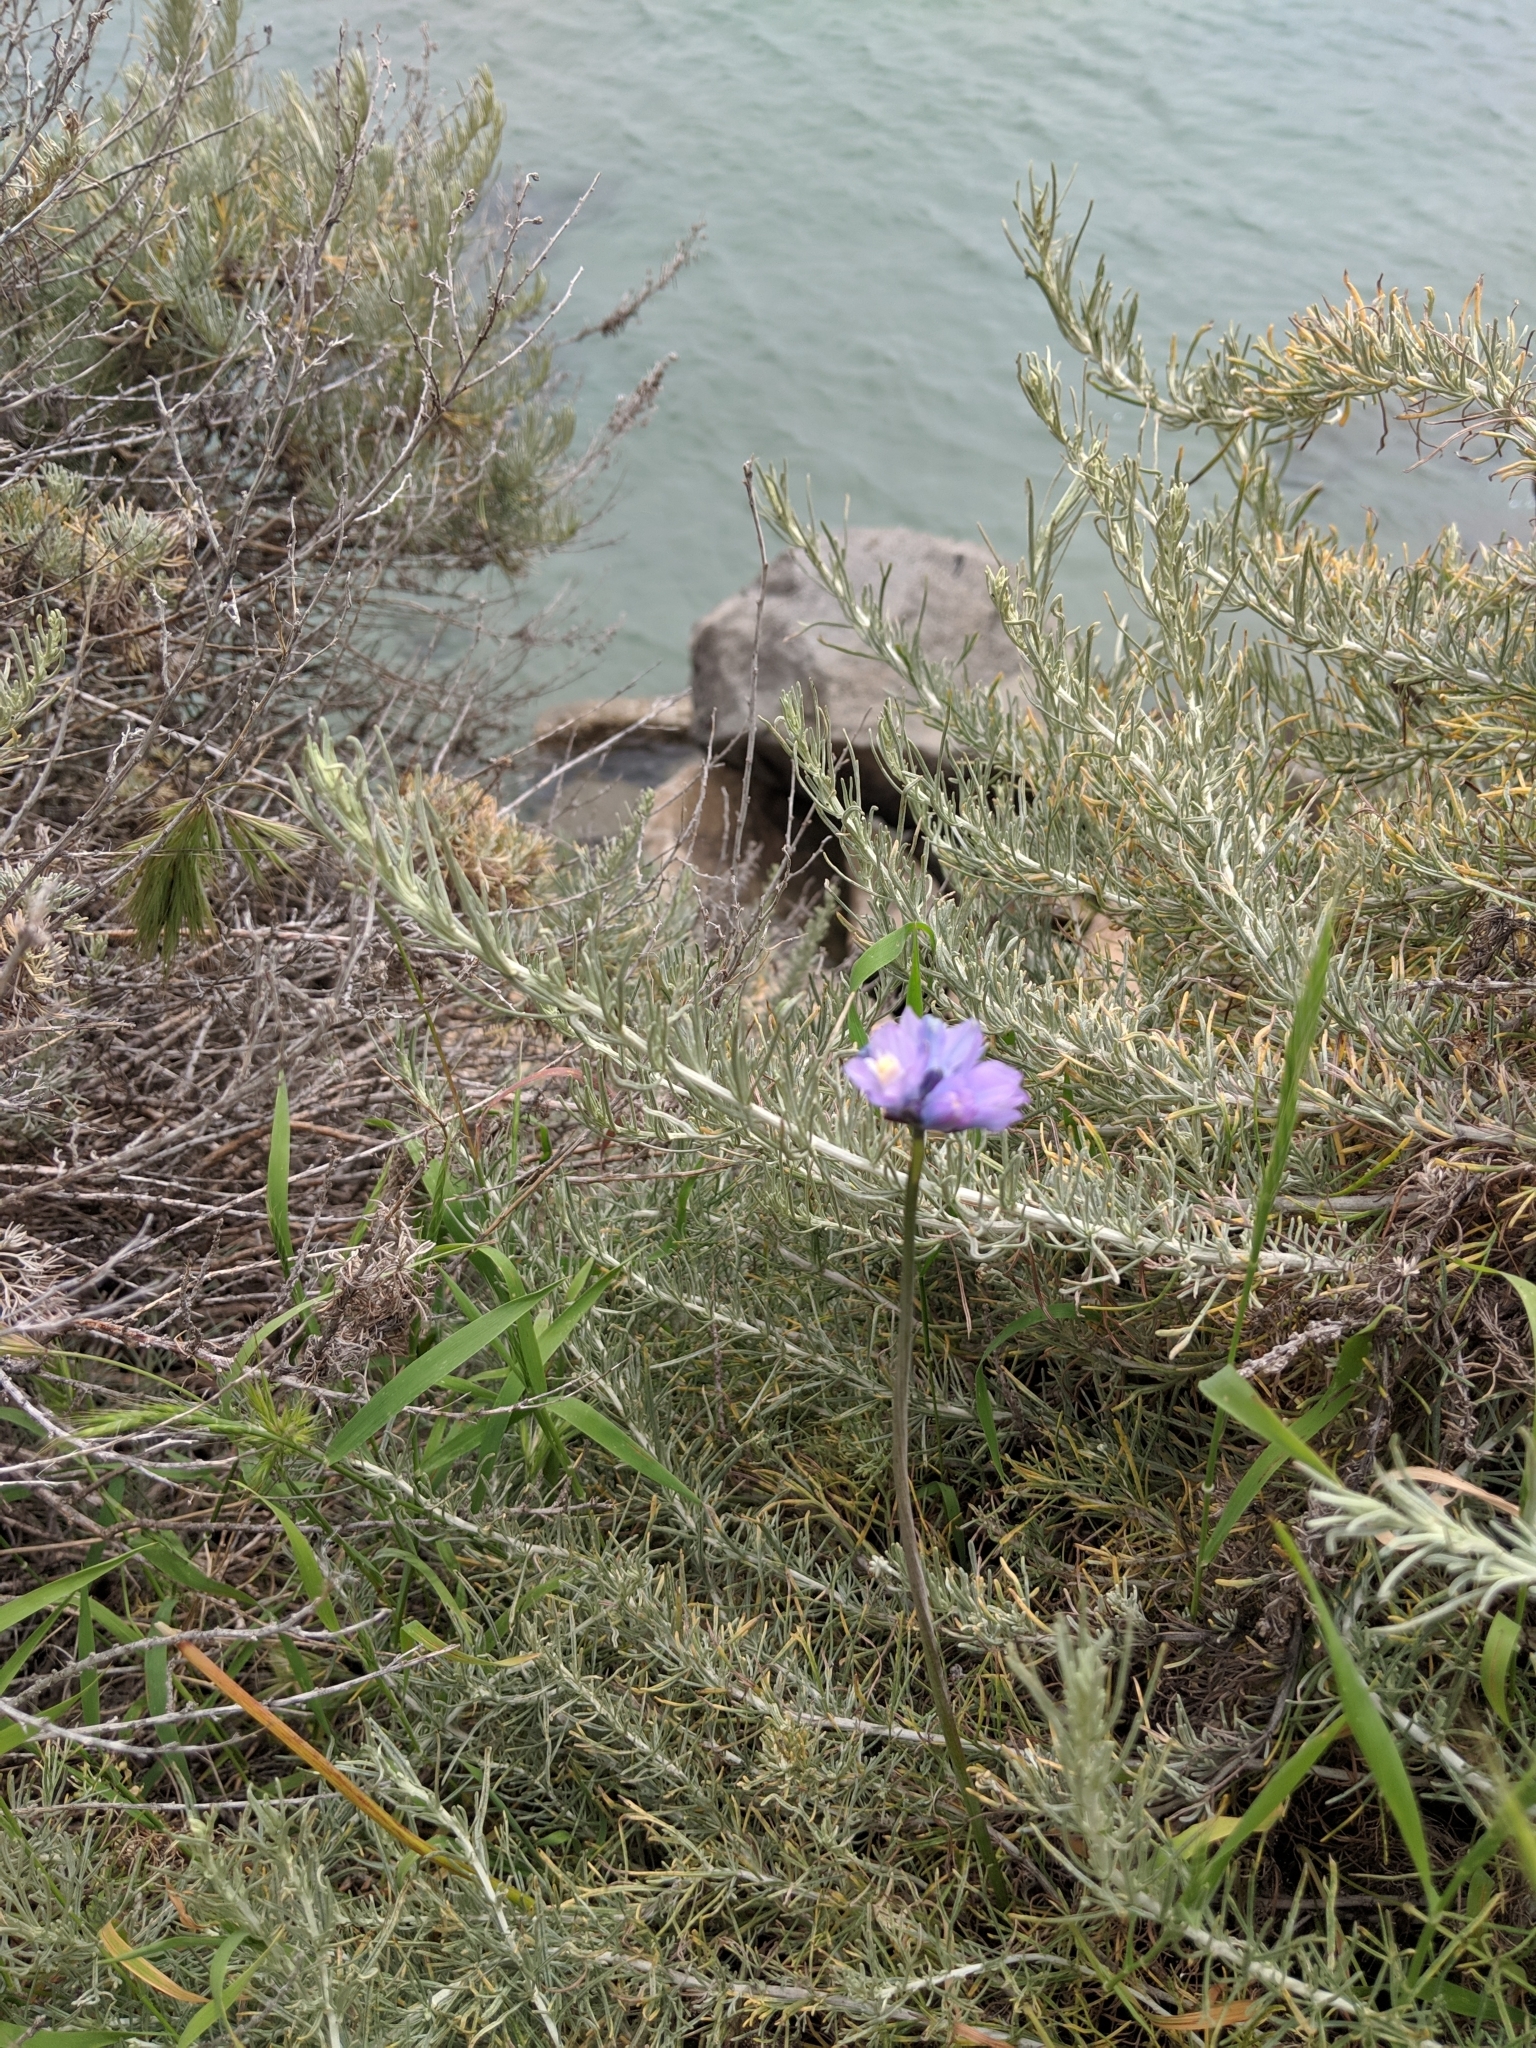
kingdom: Plantae
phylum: Tracheophyta
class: Liliopsida
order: Asparagales
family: Asparagaceae
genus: Dipterostemon
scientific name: Dipterostemon capitatus
